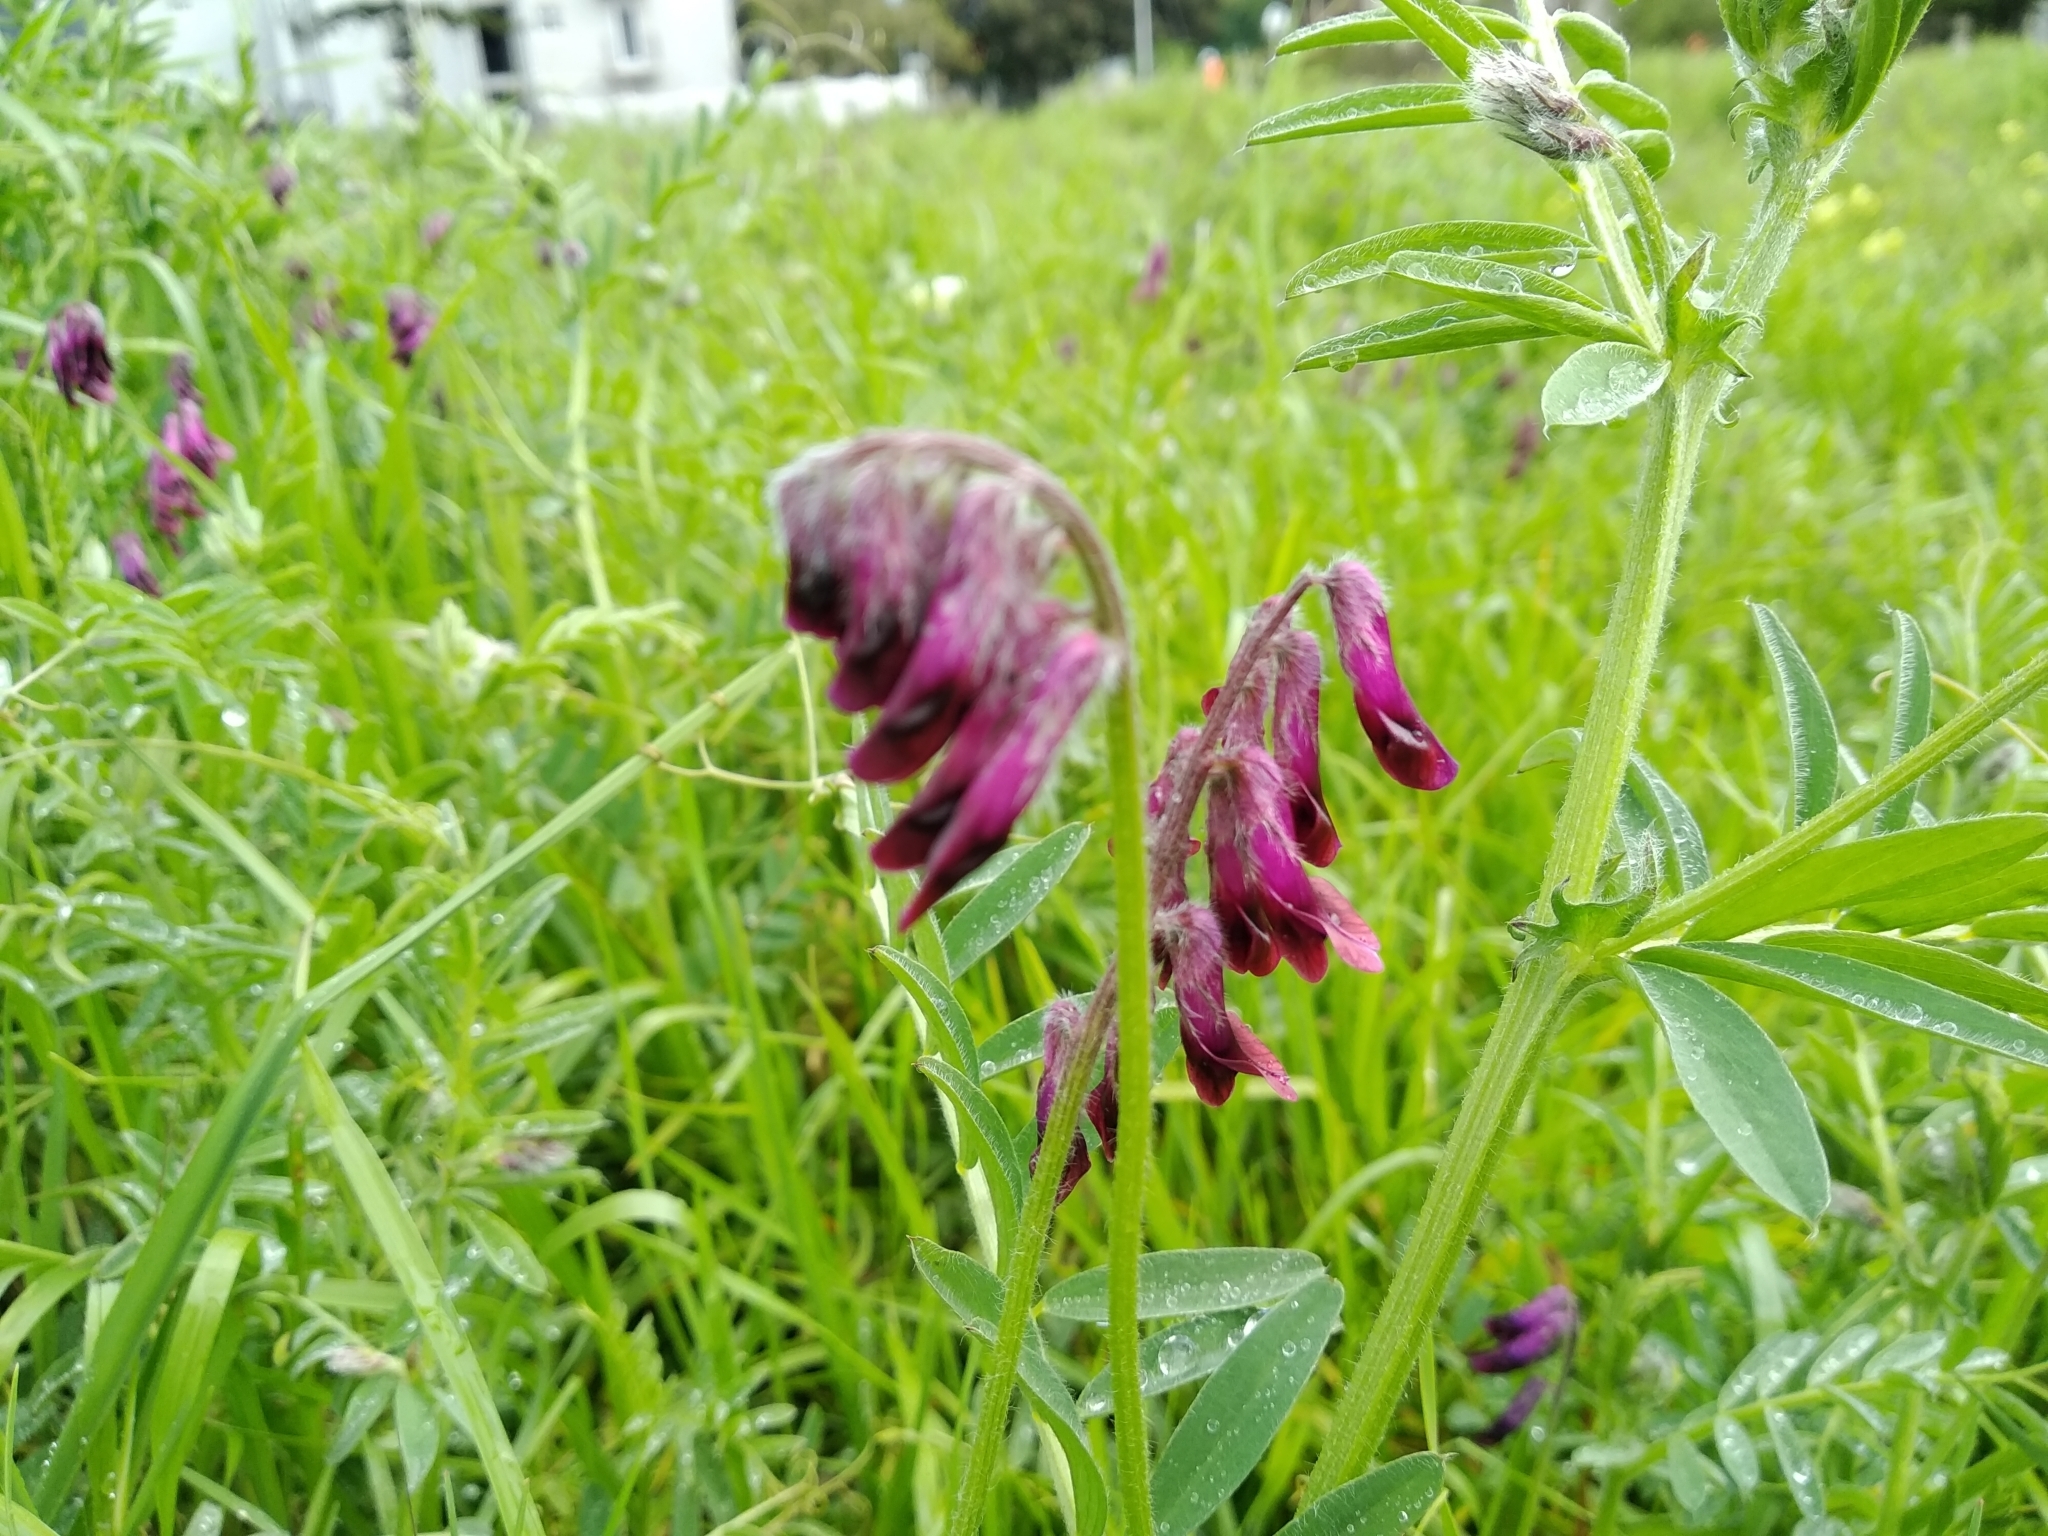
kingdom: Plantae
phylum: Tracheophyta
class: Magnoliopsida
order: Fabales
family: Fabaceae
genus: Vicia
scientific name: Vicia benghalensis
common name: Purple vetch
